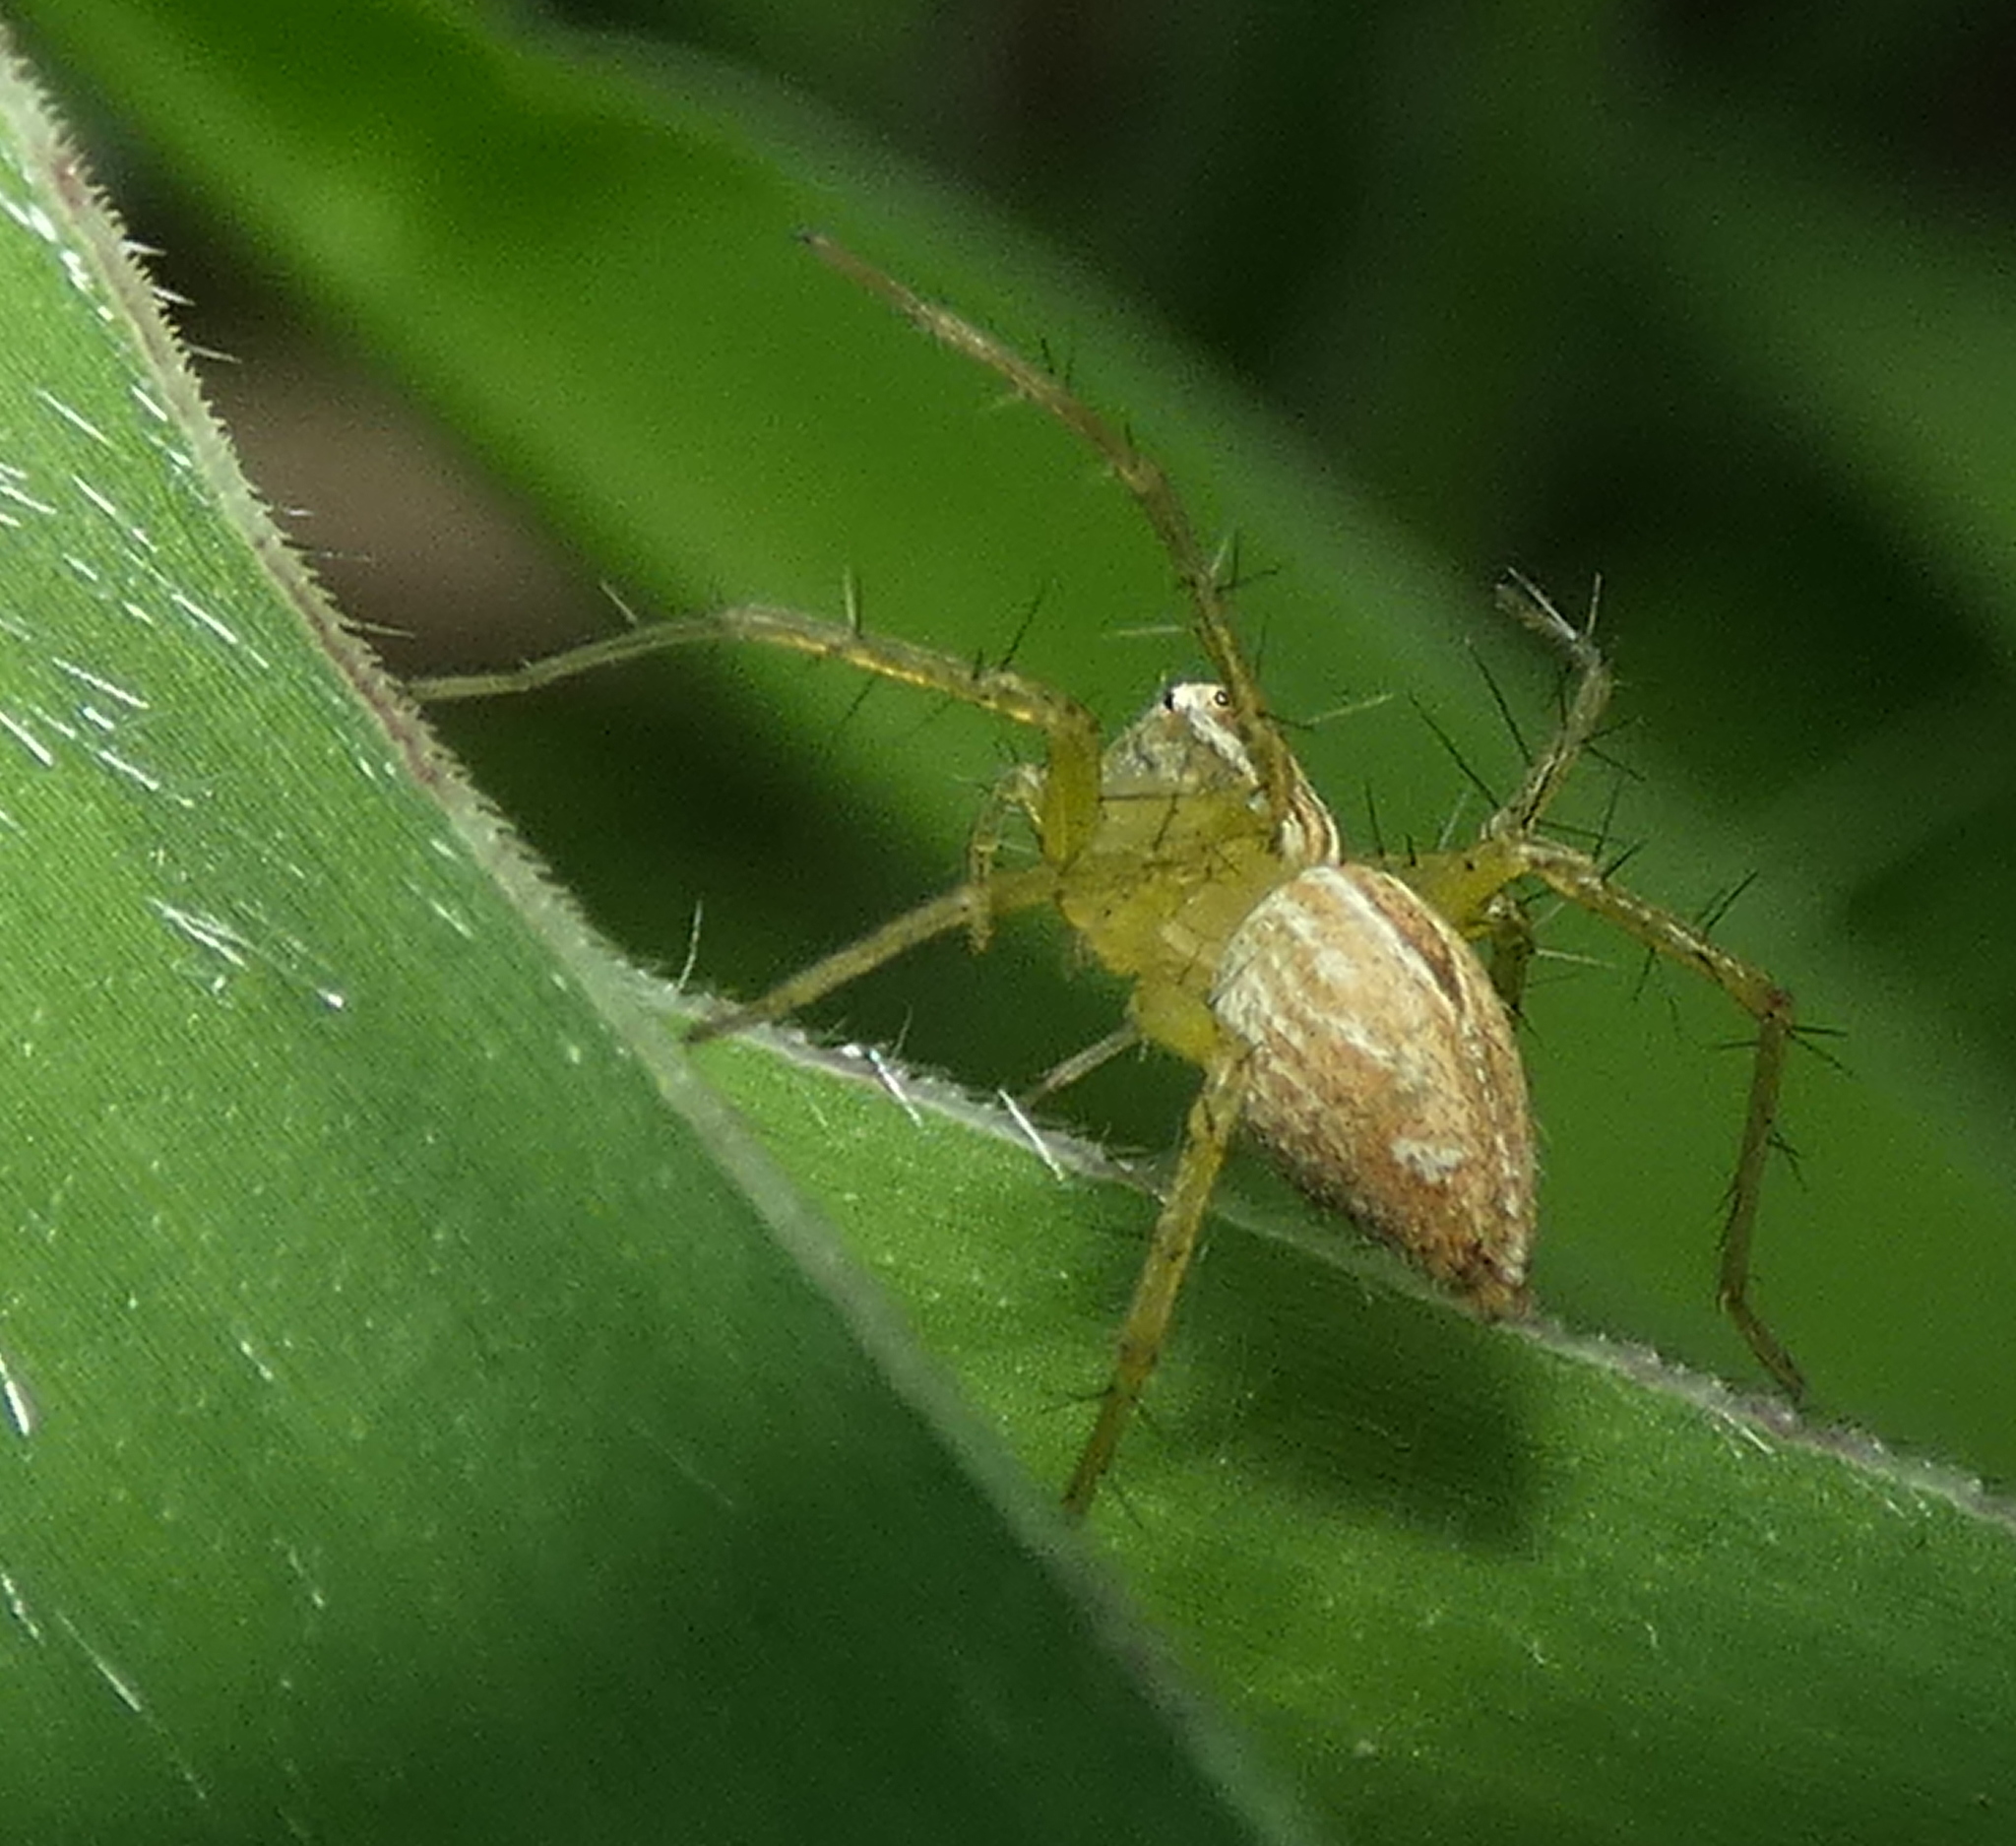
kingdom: Animalia
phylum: Arthropoda
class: Arachnida
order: Araneae
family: Oxyopidae
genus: Oxyopes
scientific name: Oxyopes salticus
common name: Lynx spiders
